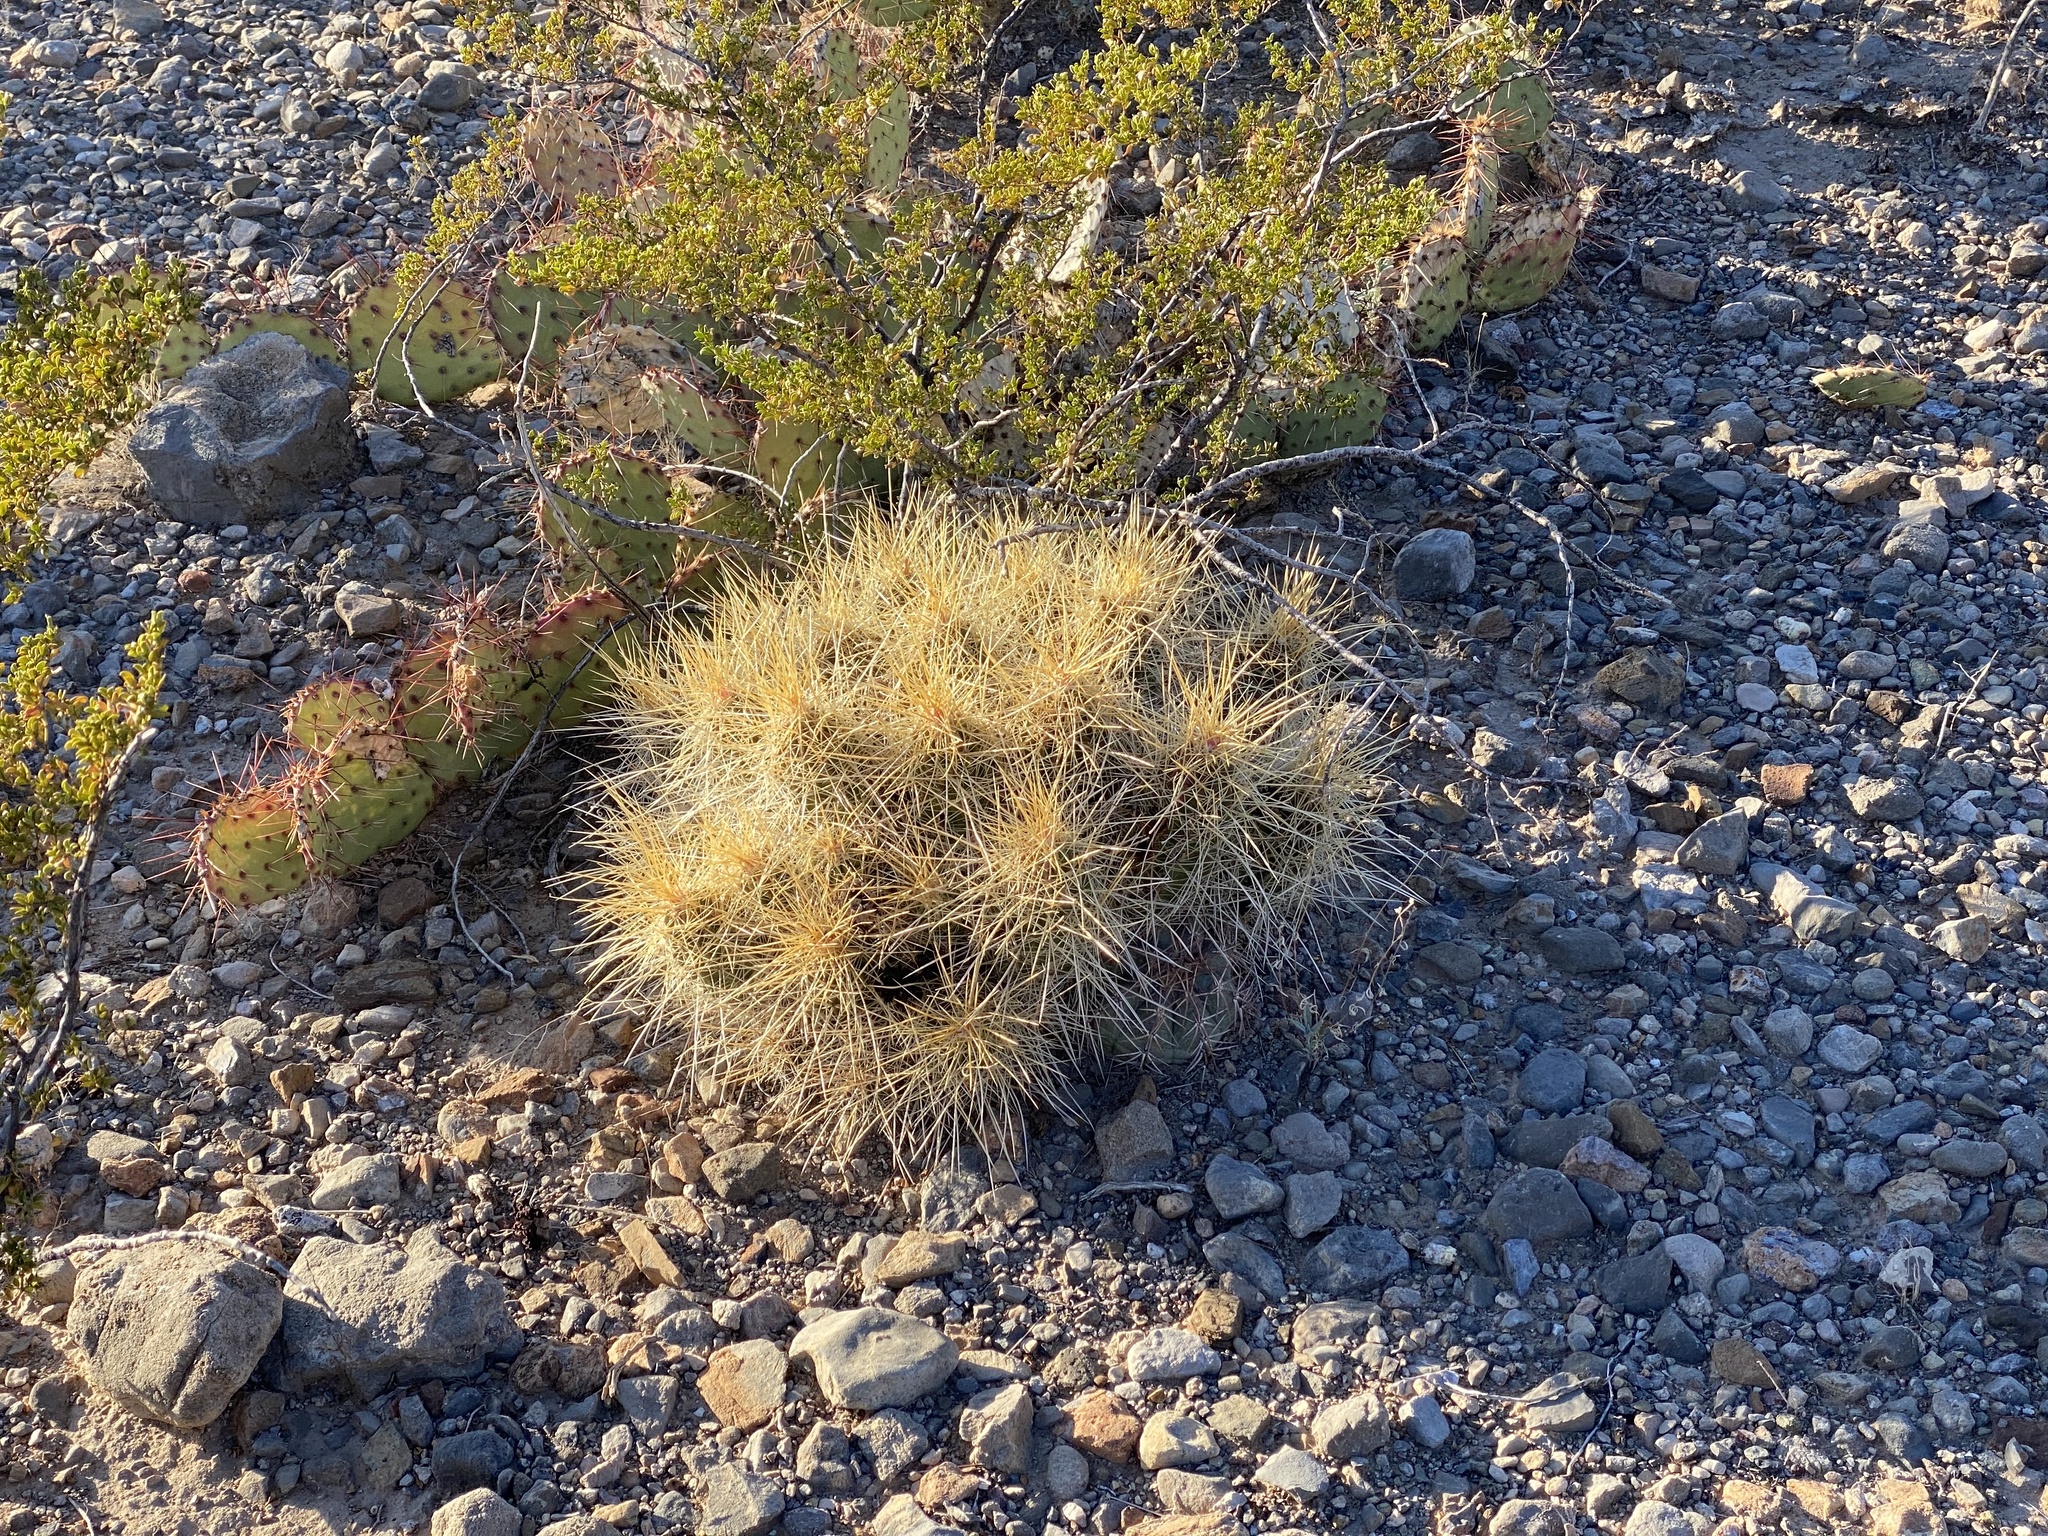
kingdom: Plantae
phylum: Tracheophyta
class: Magnoliopsida
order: Caryophyllales
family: Cactaceae
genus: Echinocereus
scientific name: Echinocereus stramineus
